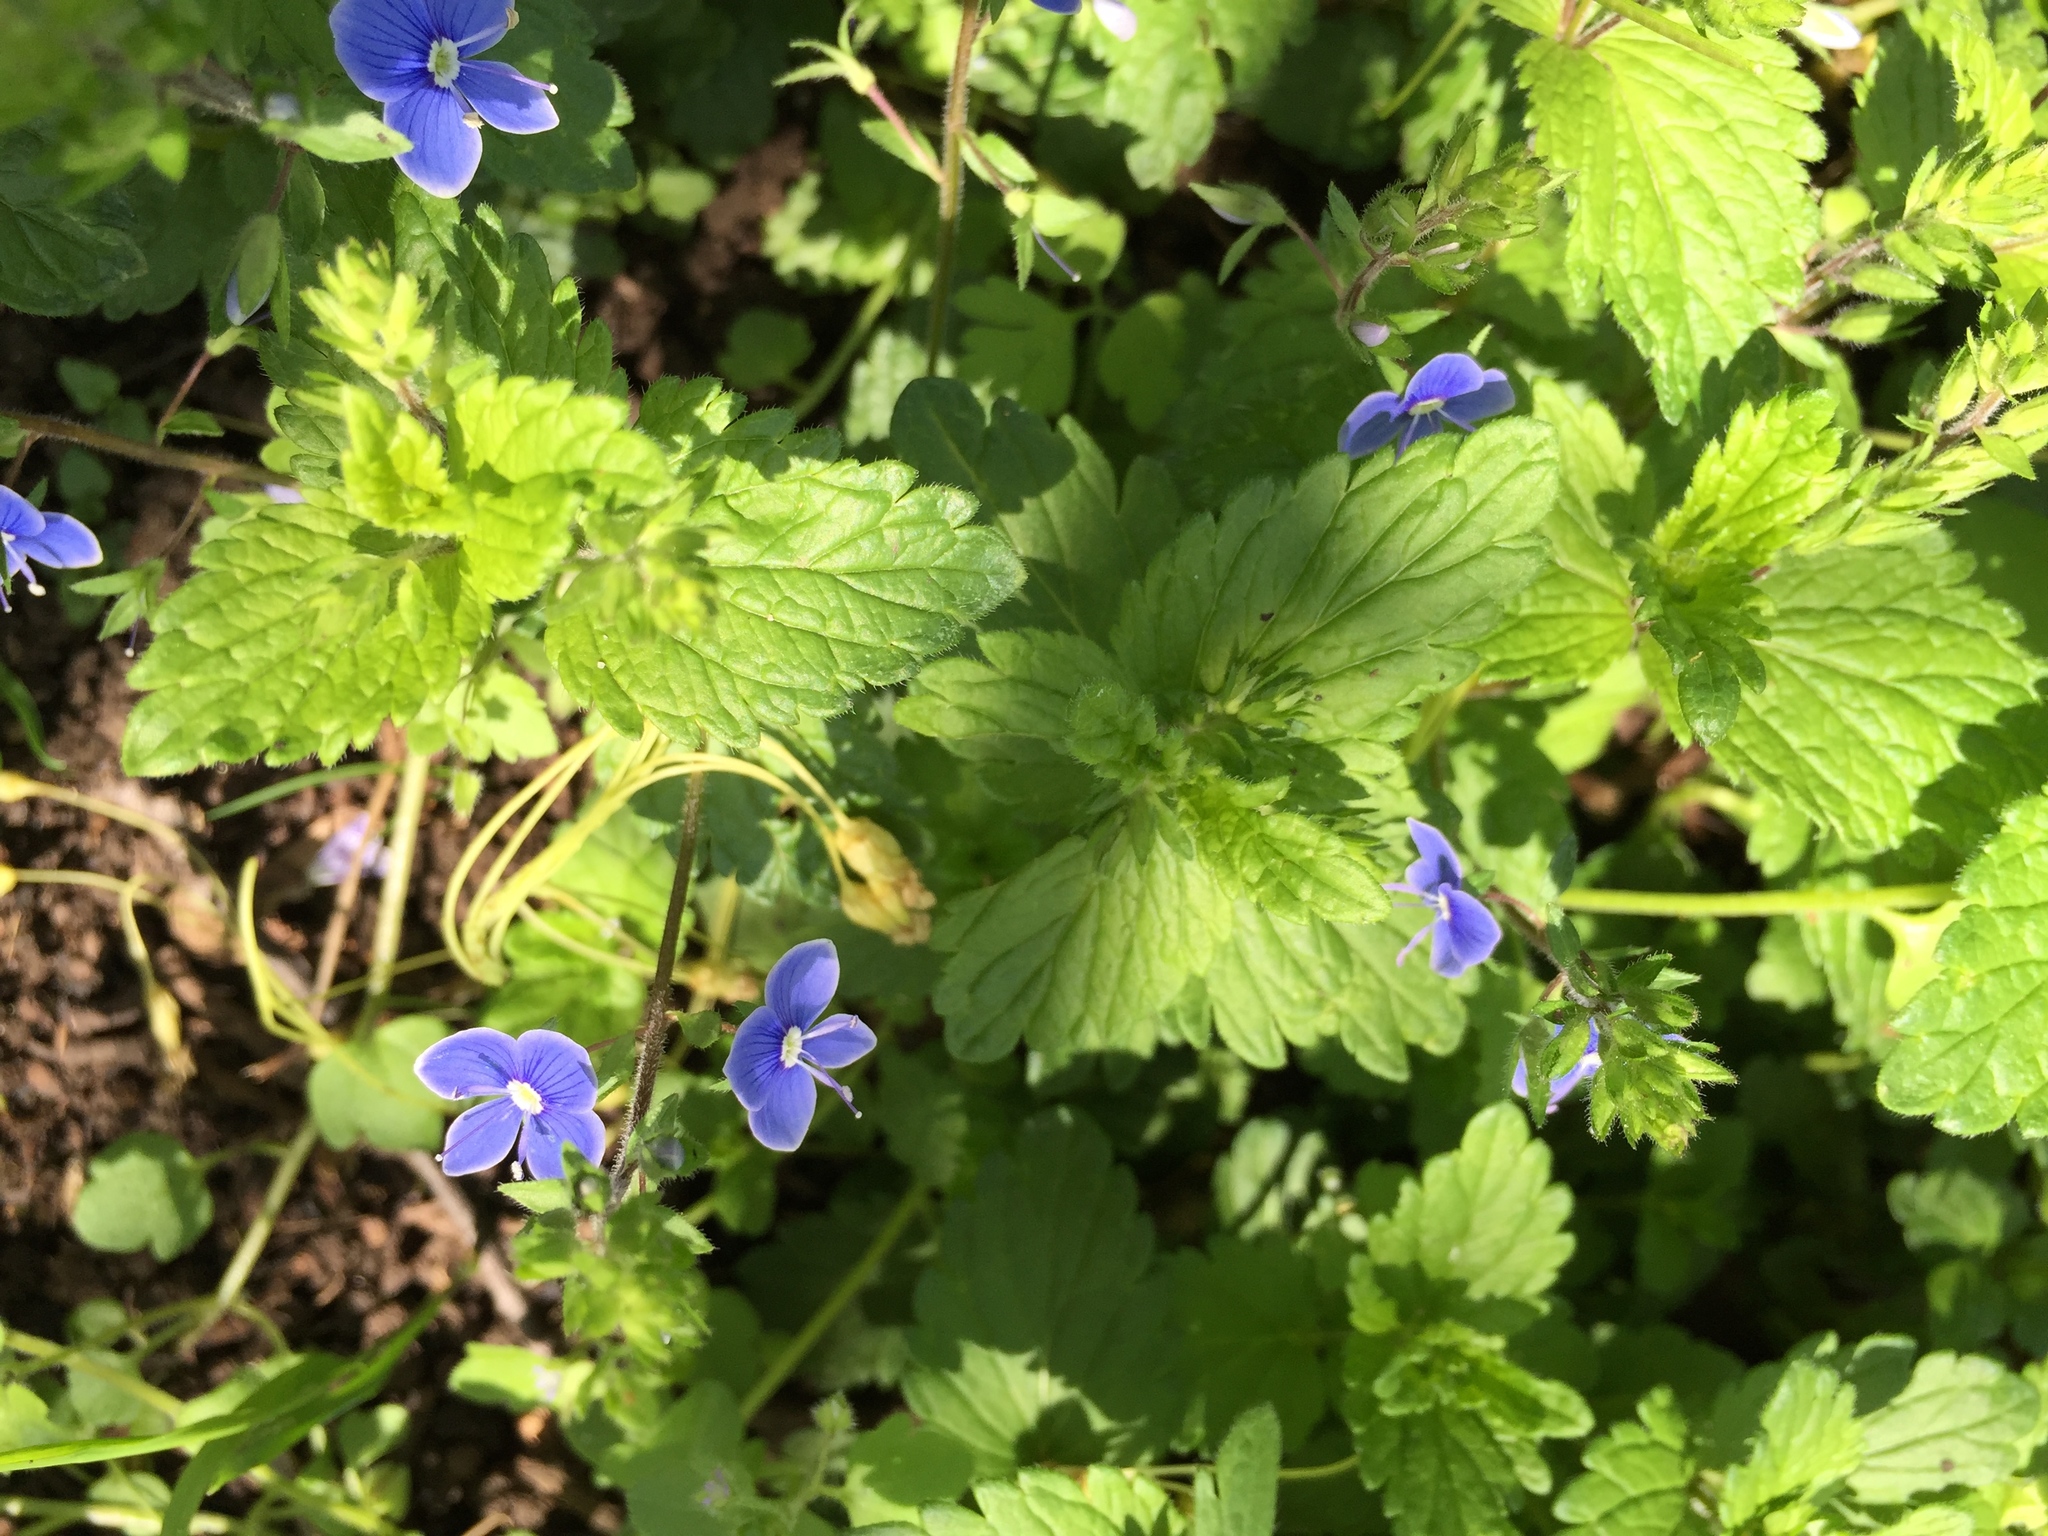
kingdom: Plantae
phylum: Tracheophyta
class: Magnoliopsida
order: Lamiales
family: Plantaginaceae
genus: Veronica
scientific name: Veronica chamaedrys
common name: Germander speedwell
